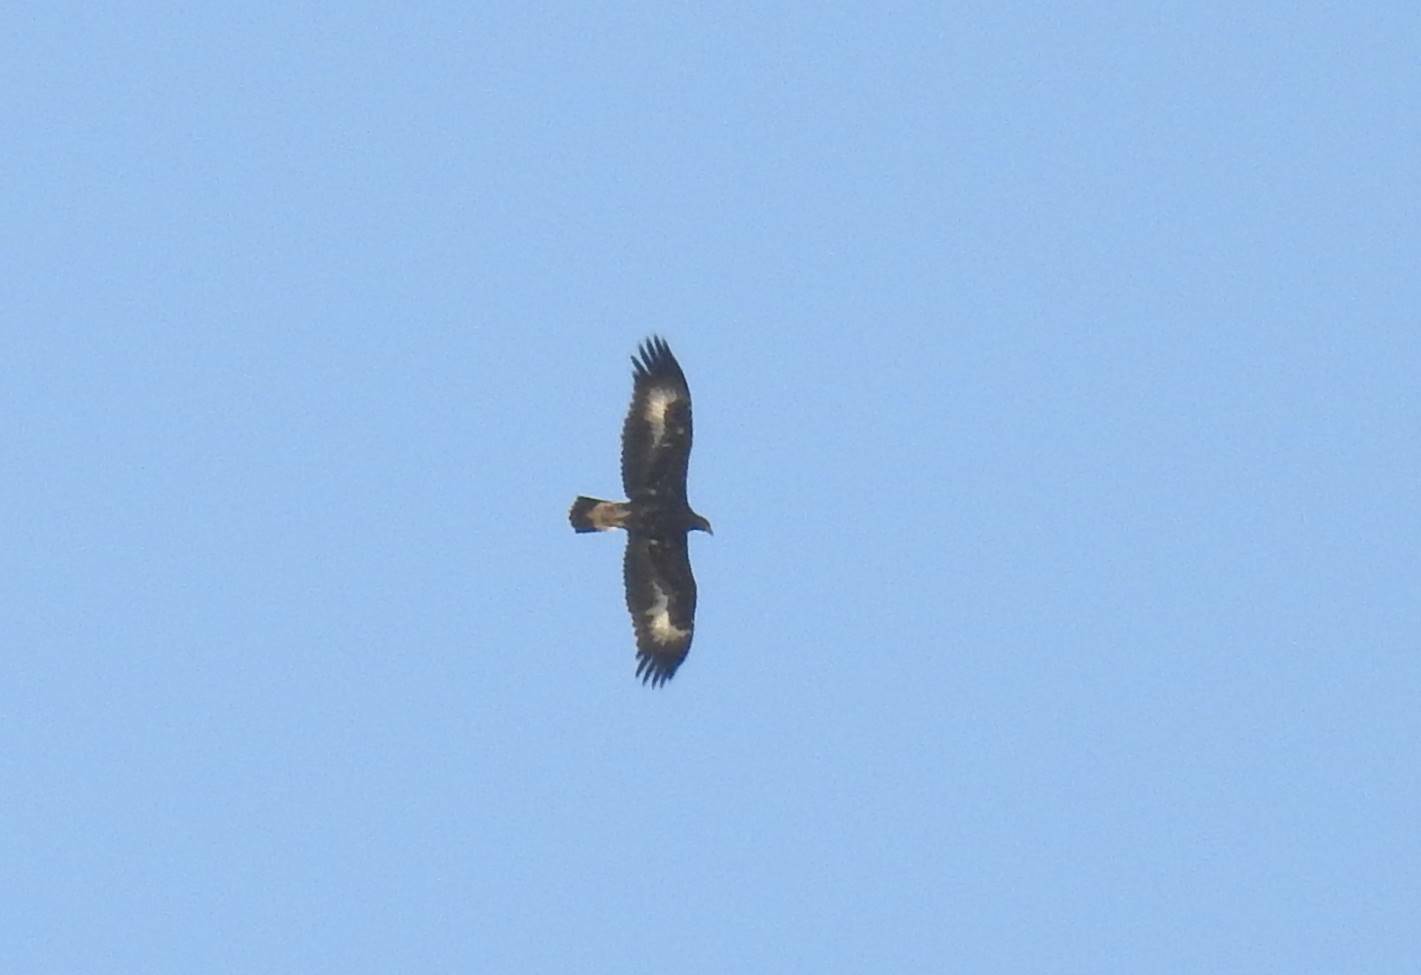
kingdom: Animalia
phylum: Chordata
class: Aves
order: Accipitriformes
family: Accipitridae
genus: Aquila
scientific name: Aquila chrysaetos
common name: Golden eagle
